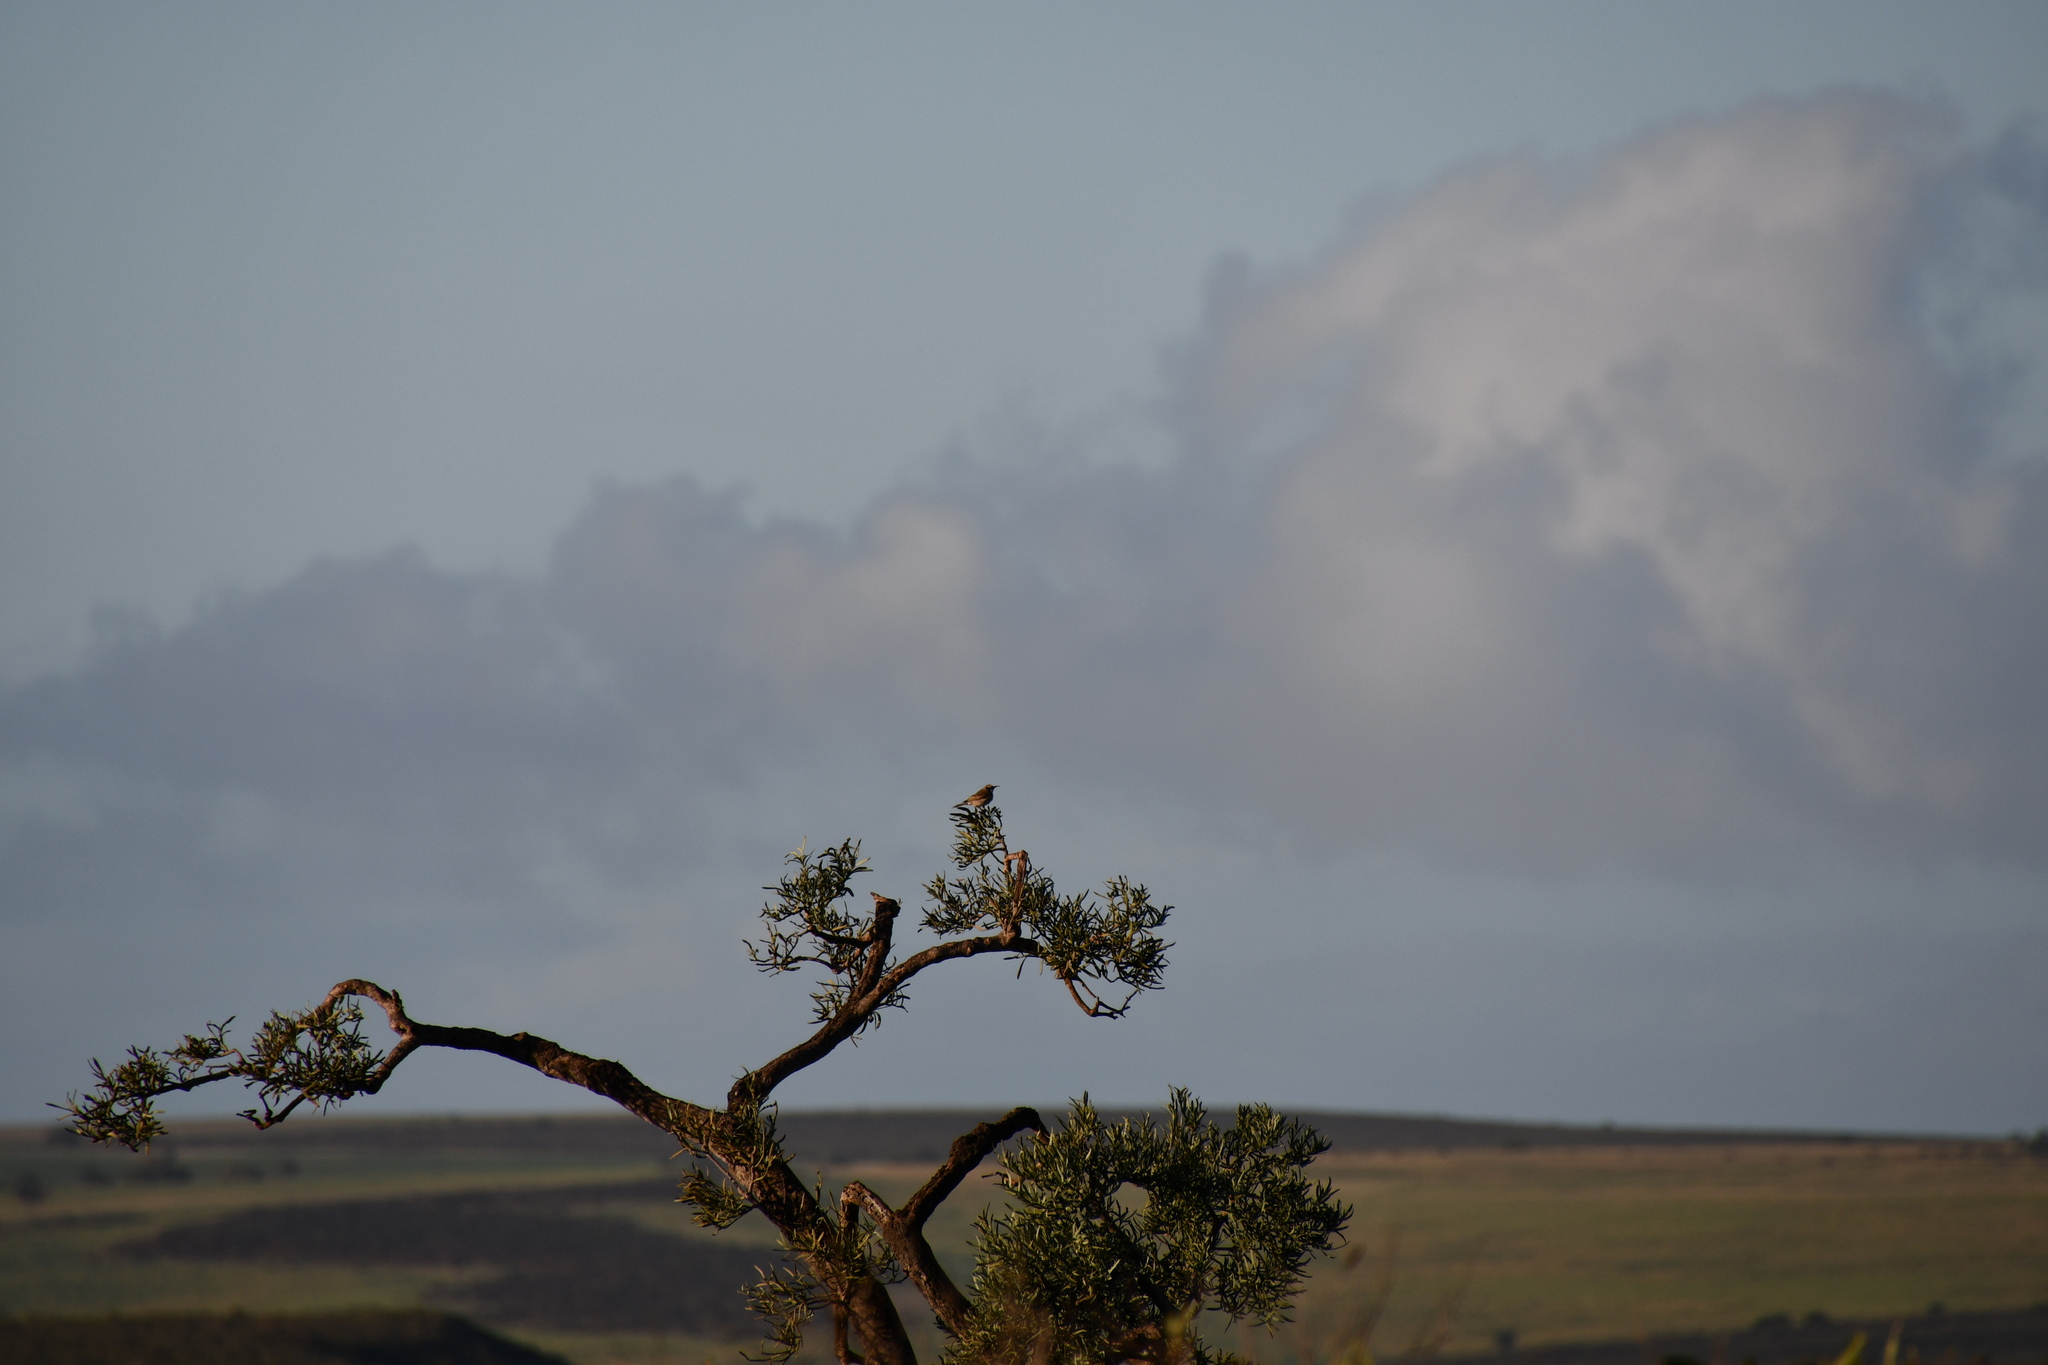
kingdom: Animalia
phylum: Chordata
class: Aves
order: Passeriformes
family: Meliphagidae
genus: Gliciphila
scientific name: Gliciphila melanops
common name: Tawny-crowned honeyeater
